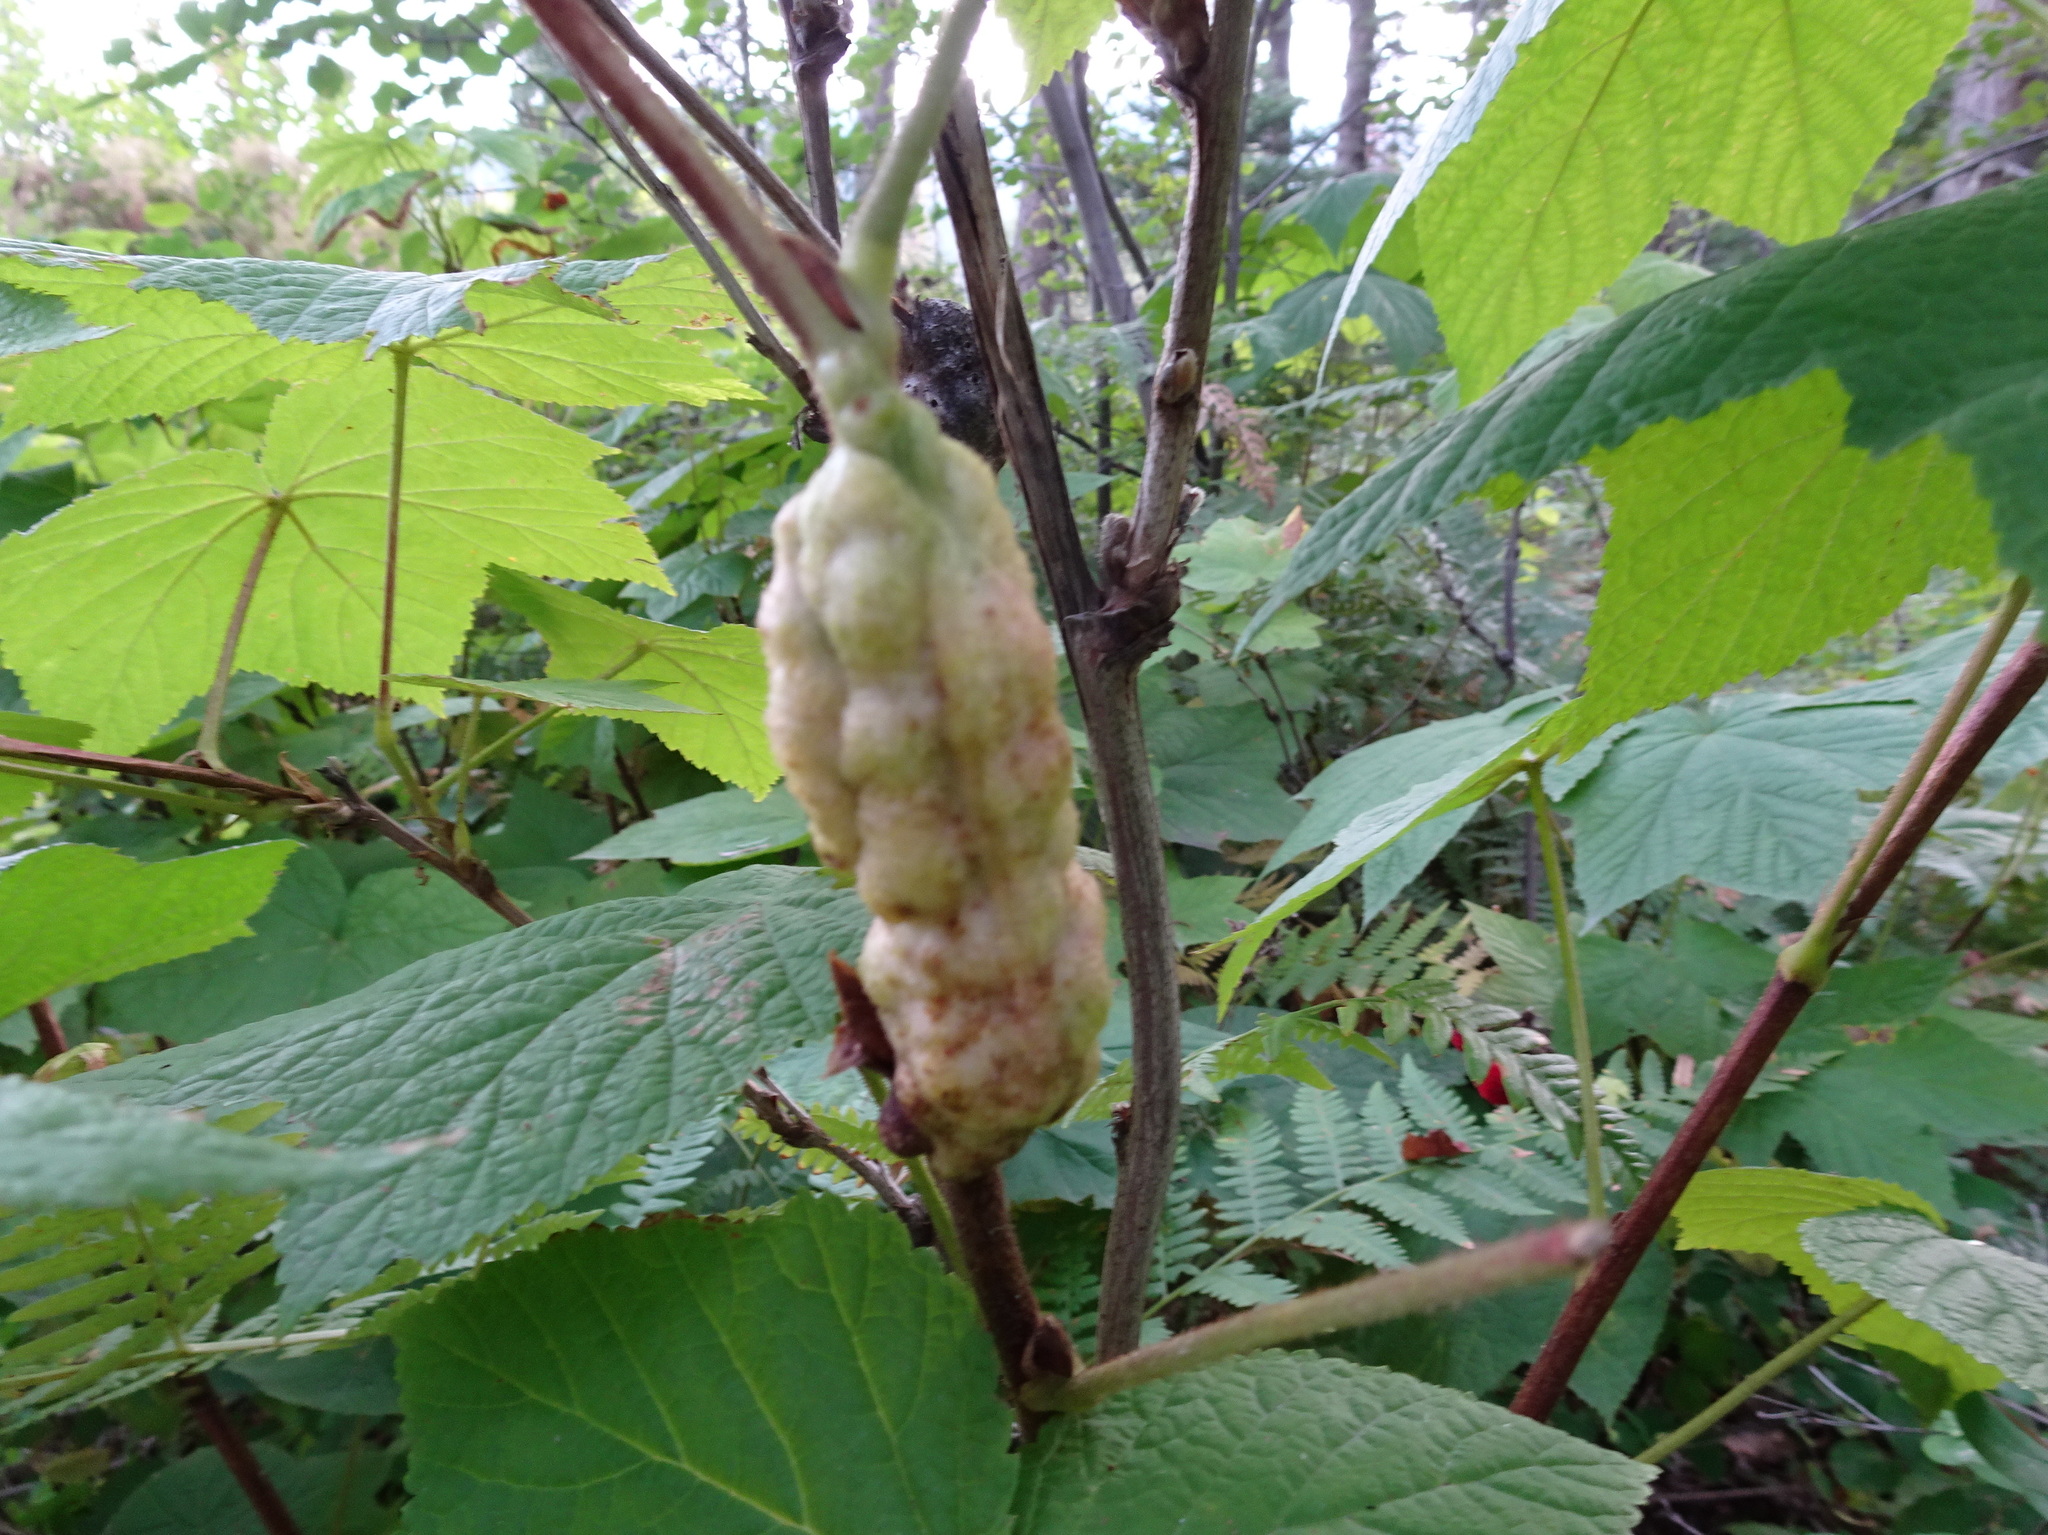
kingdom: Animalia
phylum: Arthropoda
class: Insecta
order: Hymenoptera
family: Cynipidae
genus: Diastrophus
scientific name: Diastrophus
